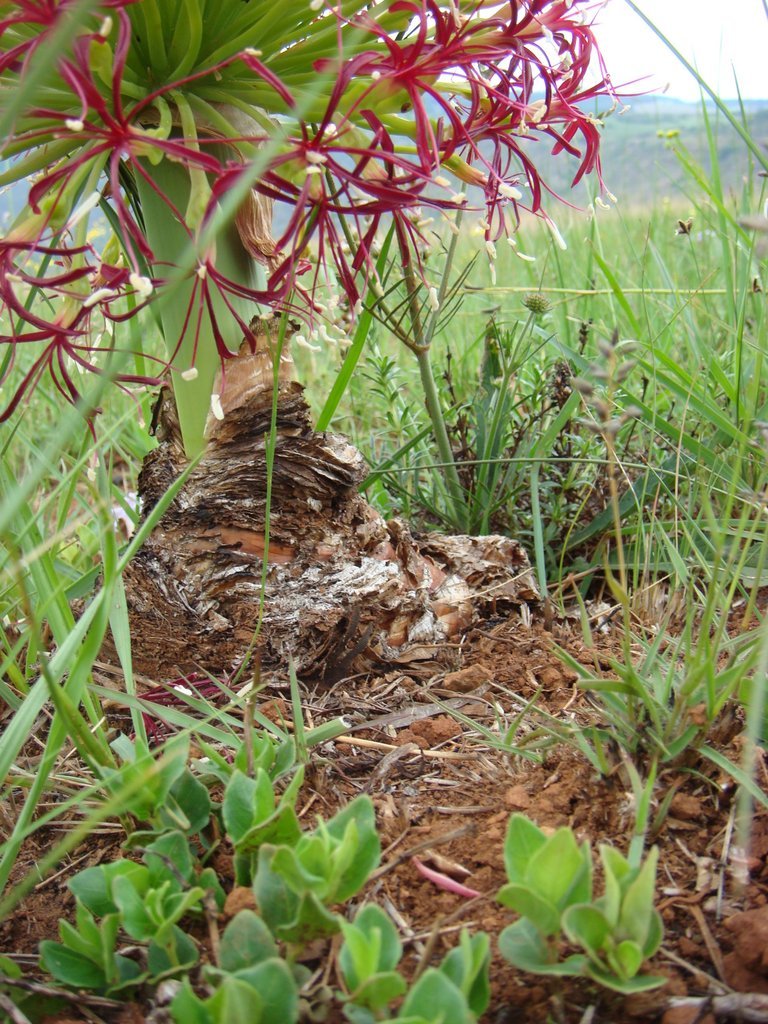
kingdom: Plantae
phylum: Tracheophyta
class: Liliopsida
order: Asparagales
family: Amaryllidaceae
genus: Boophone
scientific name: Boophone disticha
